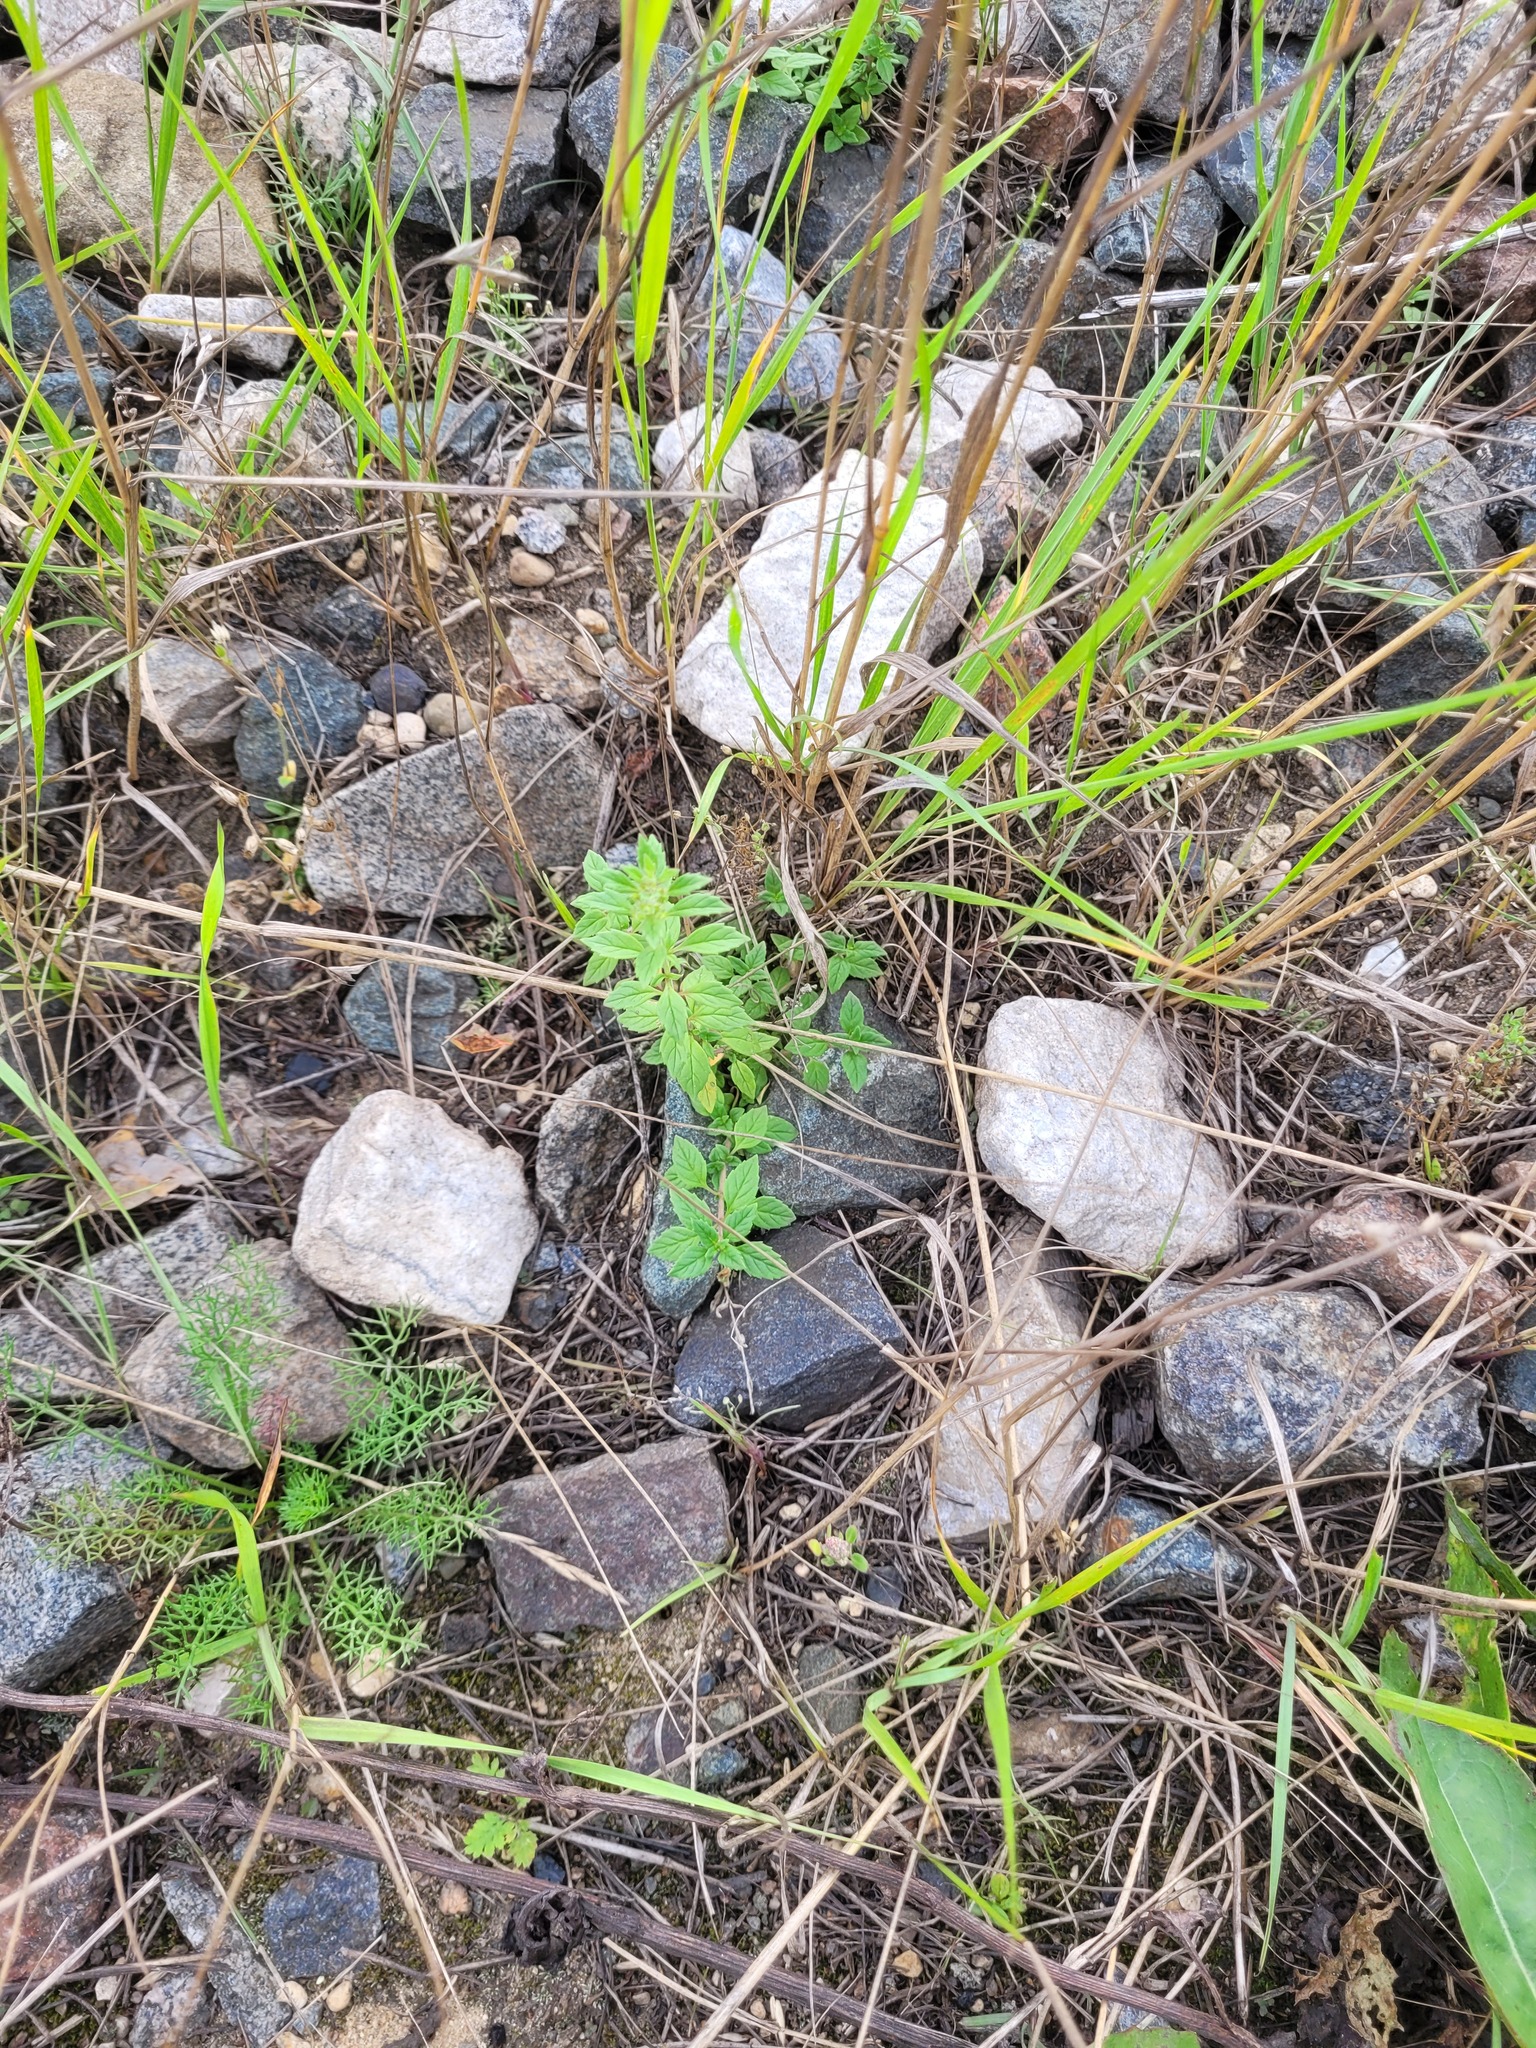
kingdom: Plantae
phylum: Tracheophyta
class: Magnoliopsida
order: Lamiales
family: Lamiaceae
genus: Clinopodium
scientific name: Clinopodium acinos
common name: Basil thyme
